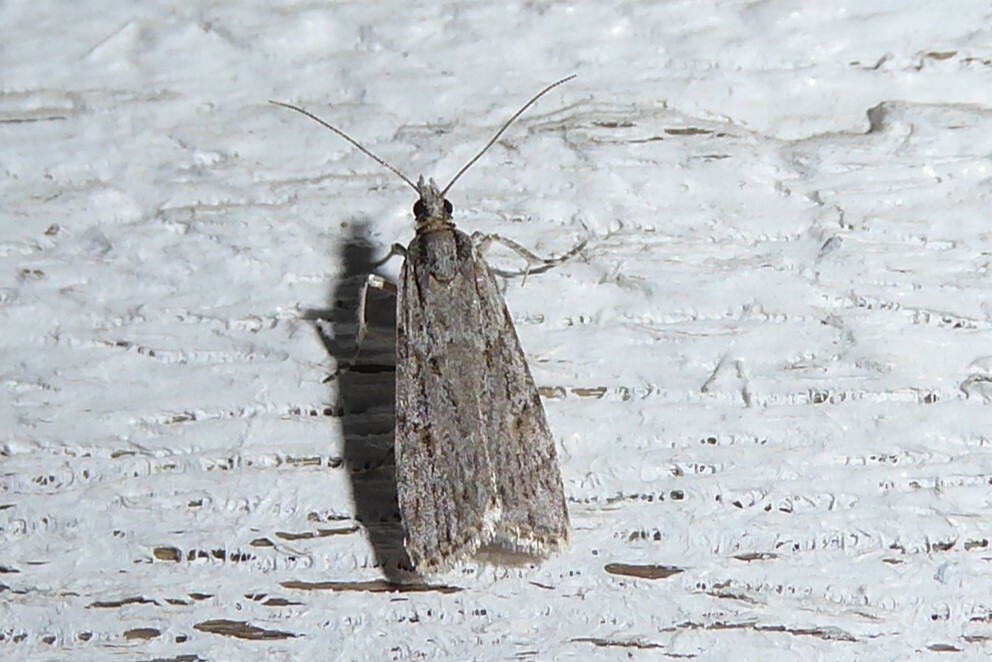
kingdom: Animalia
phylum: Arthropoda
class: Insecta
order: Lepidoptera
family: Crambidae
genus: Scoparia
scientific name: Scoparia chalicodes
